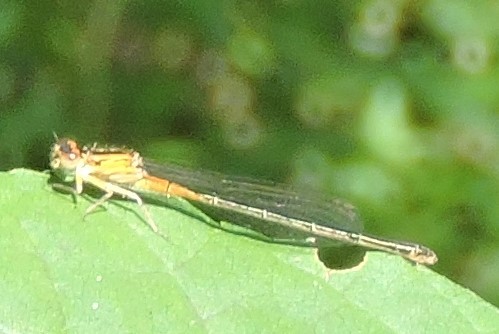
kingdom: Animalia
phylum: Arthropoda
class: Insecta
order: Odonata
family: Coenagrionidae
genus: Ischnura
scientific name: Ischnura verticalis
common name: Eastern forktail
